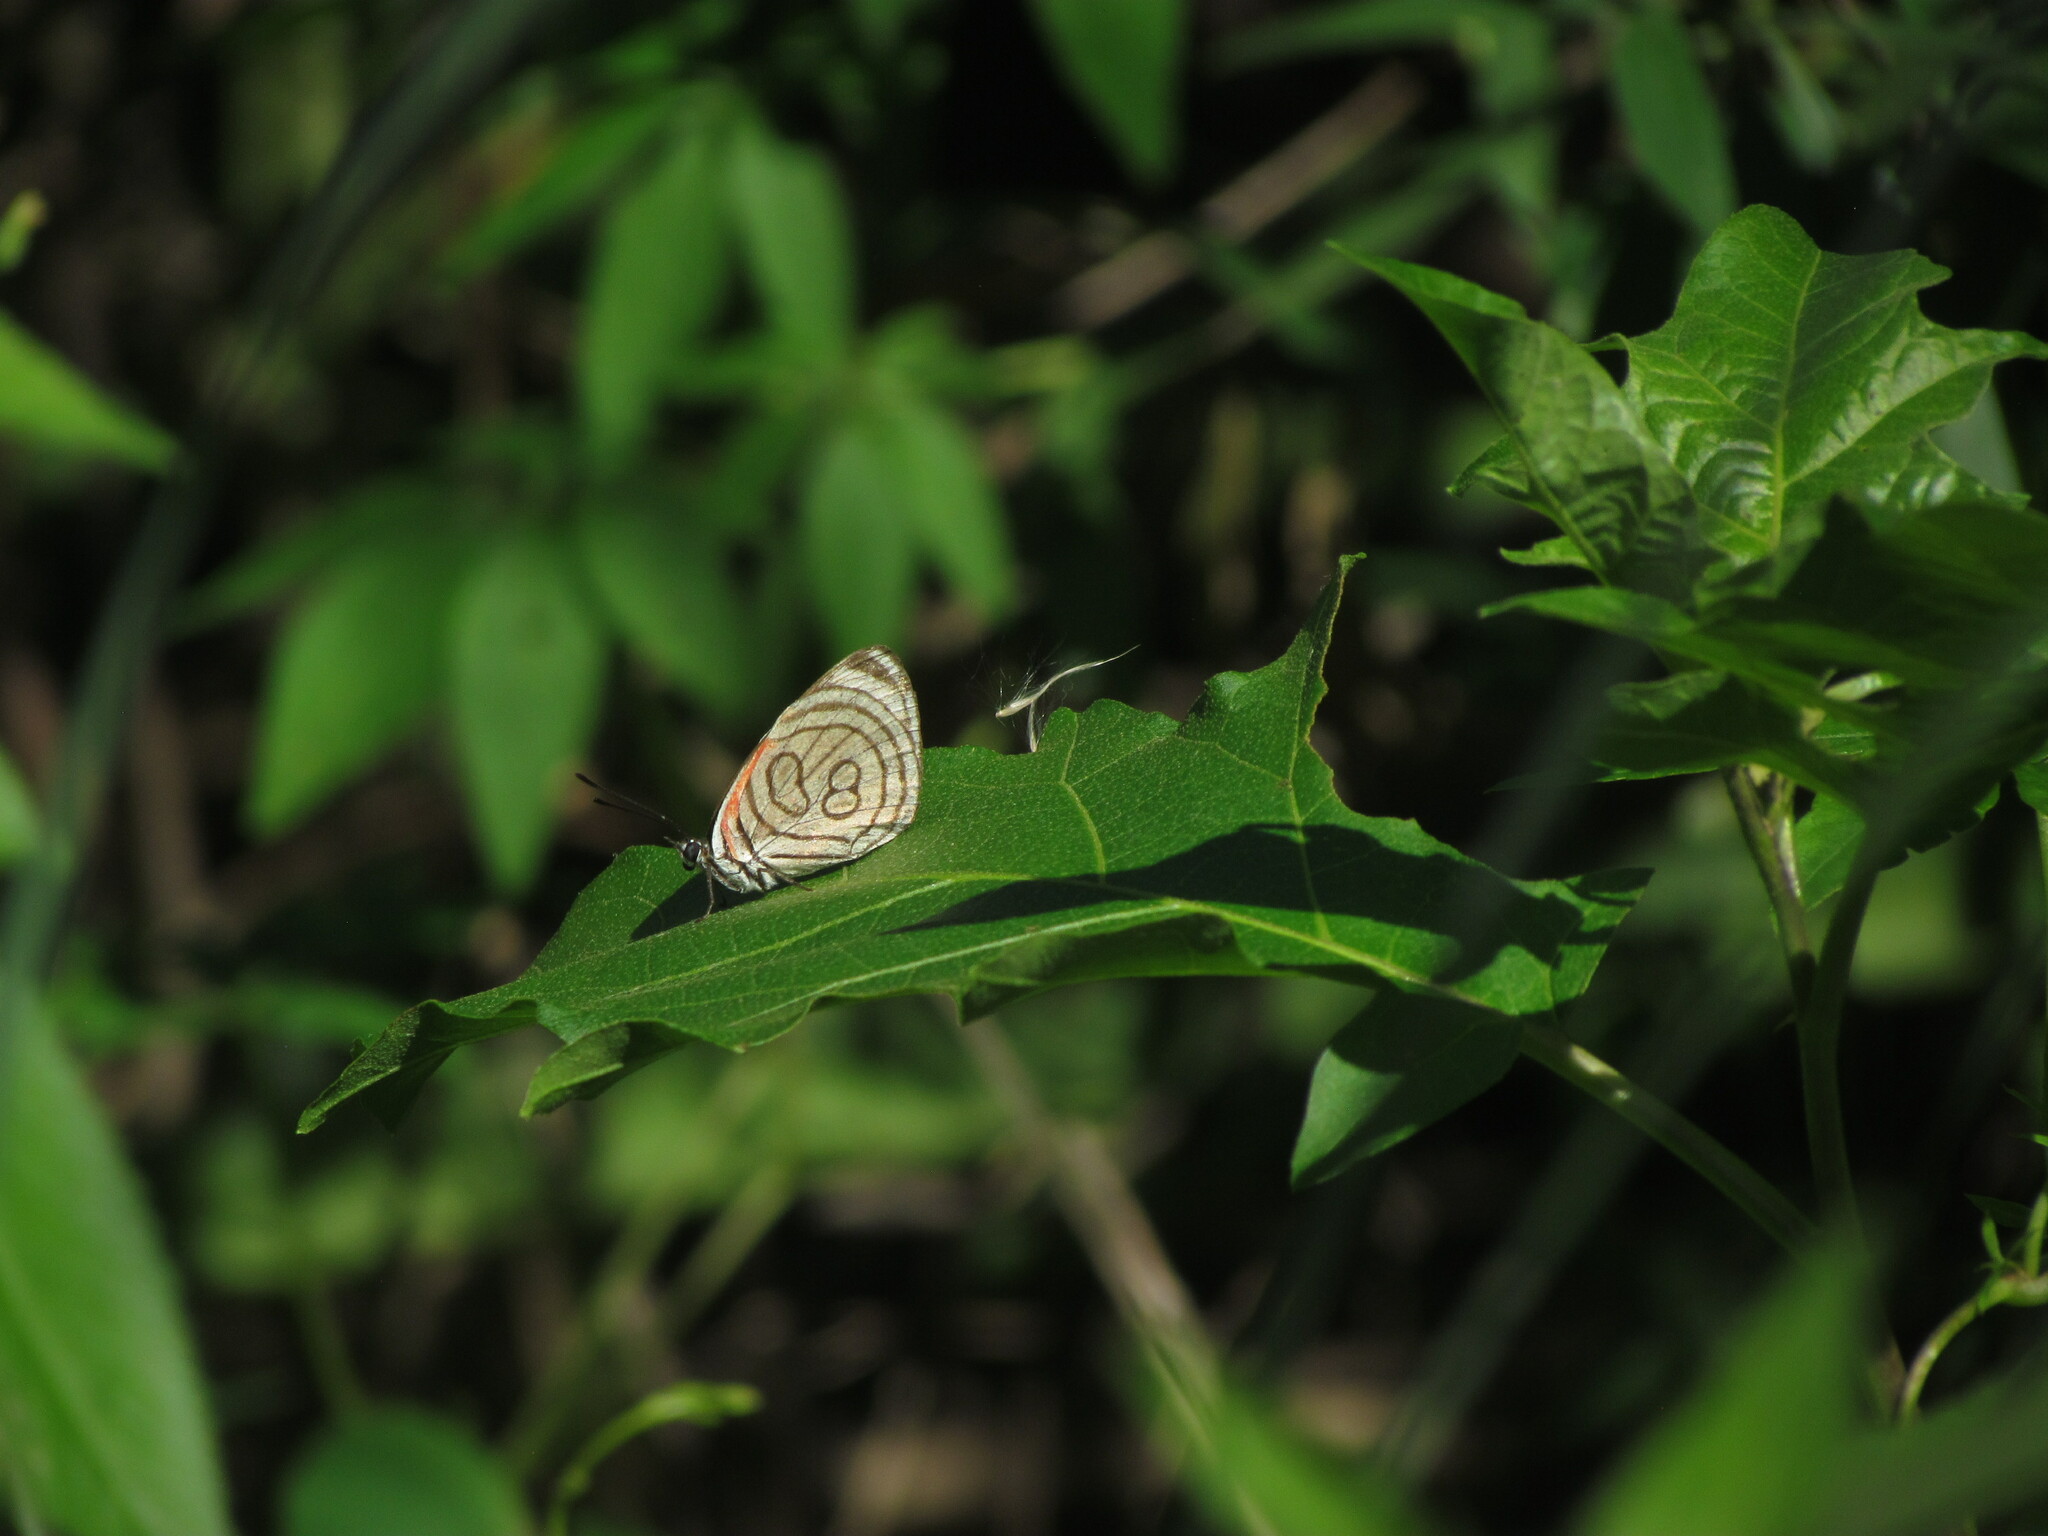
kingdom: Animalia
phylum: Arthropoda
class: Insecta
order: Lepidoptera
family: Nymphalidae
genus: Diaethria
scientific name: Diaethria candrena
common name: Number eighty
